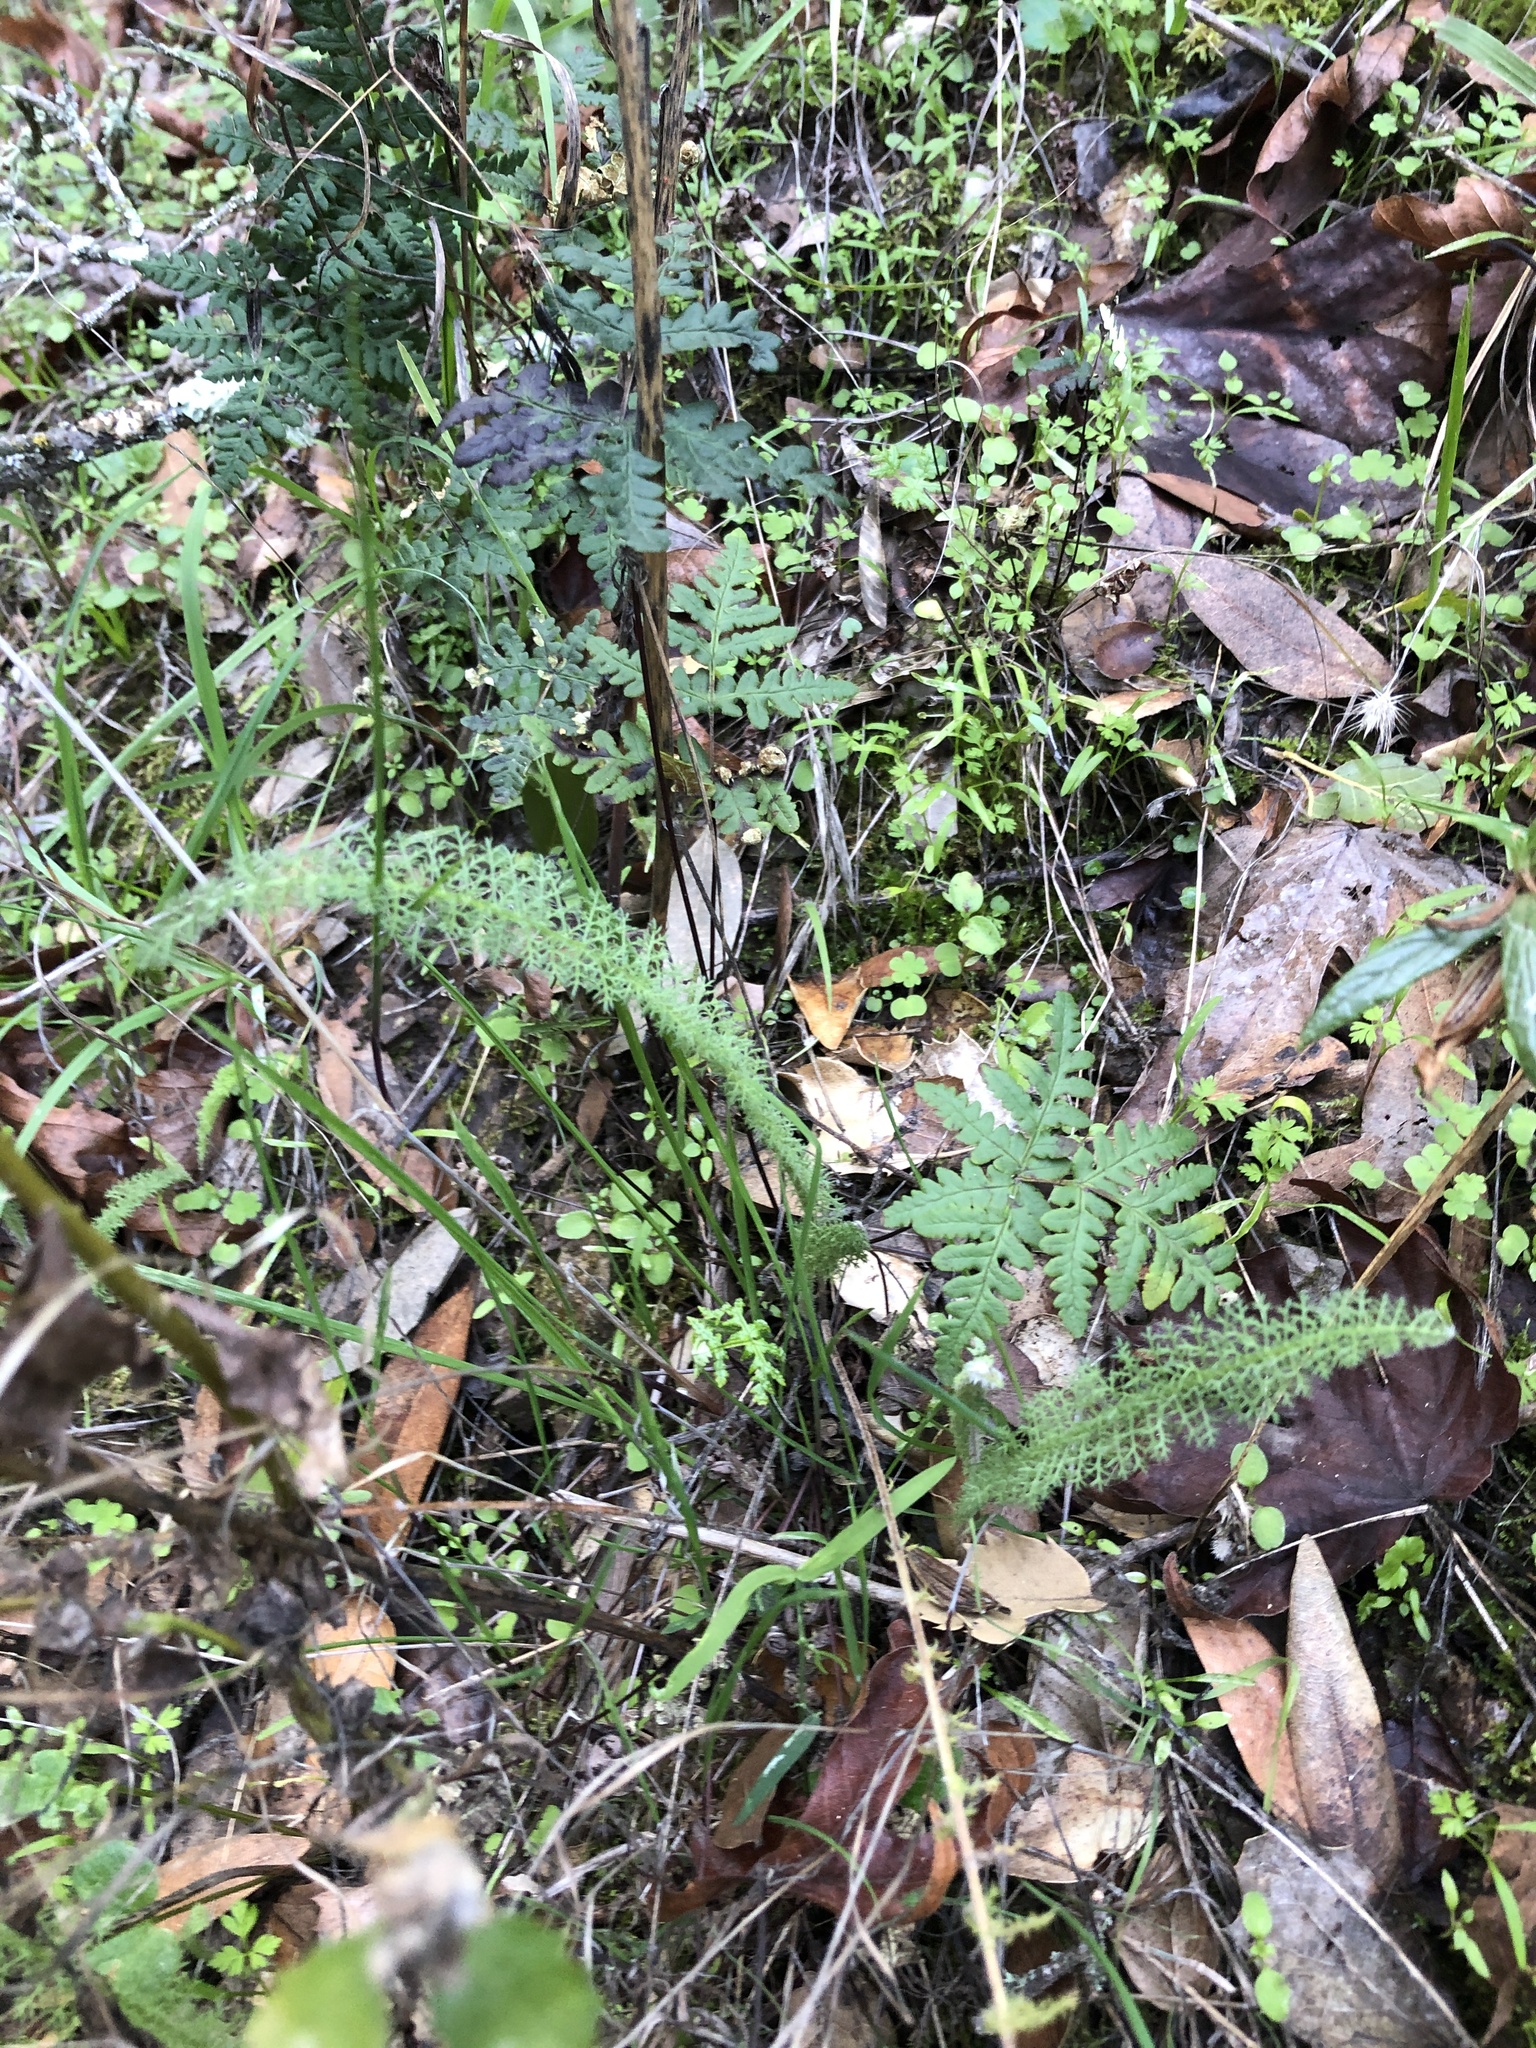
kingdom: Plantae
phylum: Tracheophyta
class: Magnoliopsida
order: Asterales
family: Asteraceae
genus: Achillea
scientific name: Achillea millefolium
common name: Yarrow
